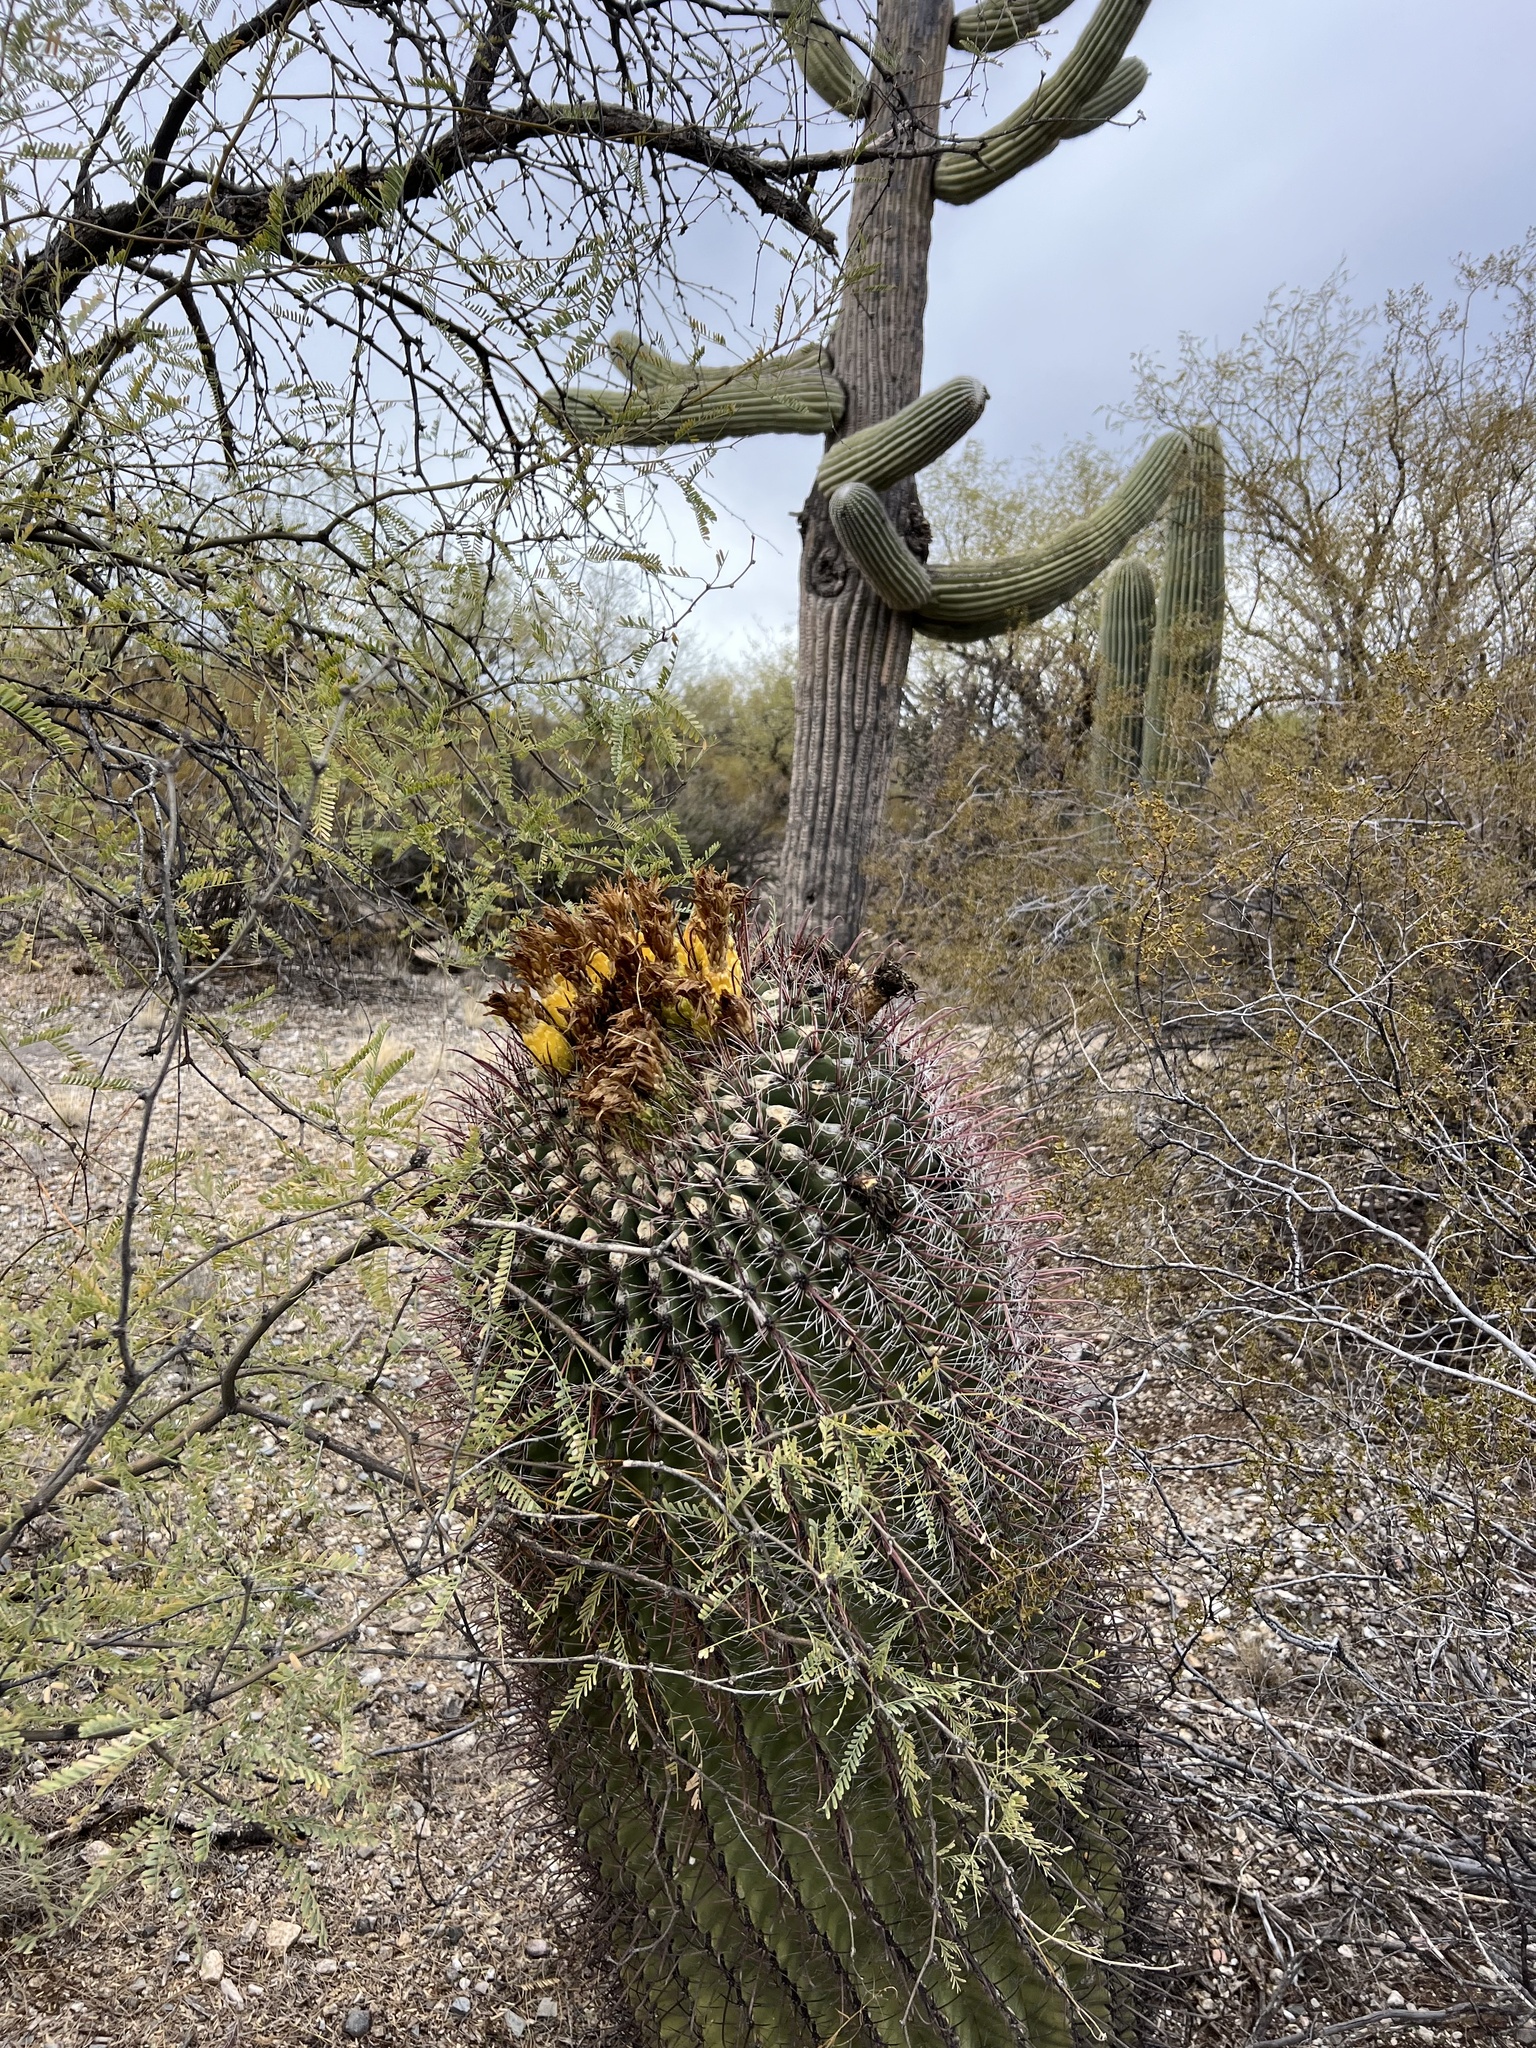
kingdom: Plantae
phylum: Tracheophyta
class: Magnoliopsida
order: Caryophyllales
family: Cactaceae
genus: Ferocactus
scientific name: Ferocactus wislizeni
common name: Candy barrel cactus
